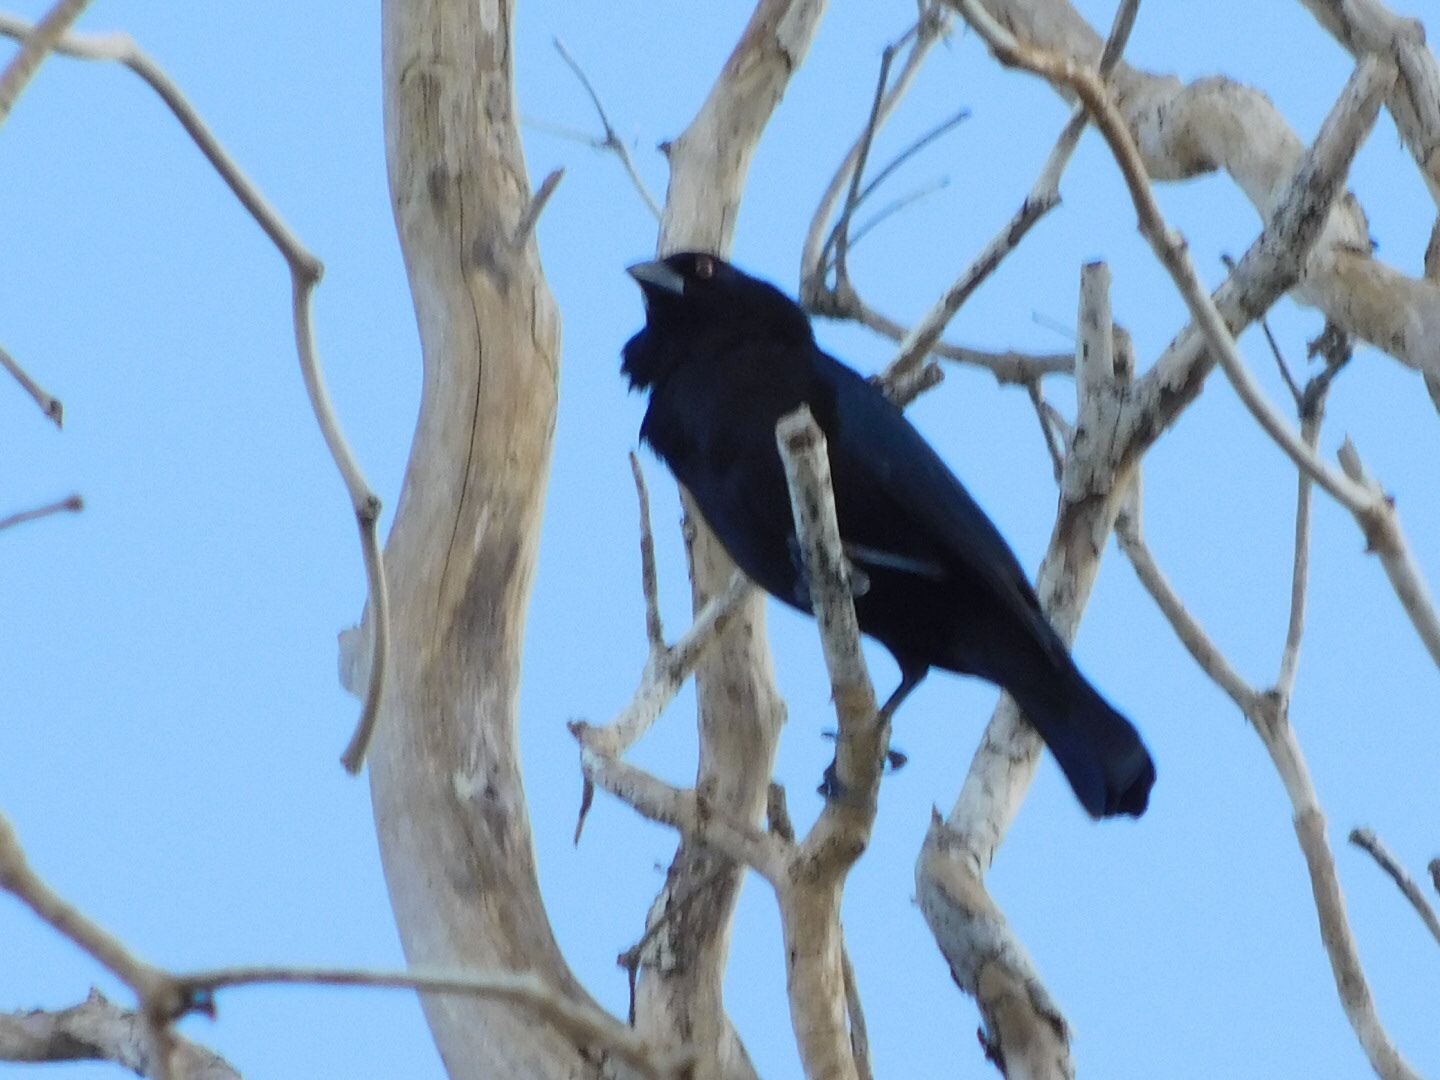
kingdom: Animalia
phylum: Chordata
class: Aves
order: Passeriformes
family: Icteridae
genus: Molothrus
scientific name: Molothrus aeneus
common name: Bronzed cowbird
